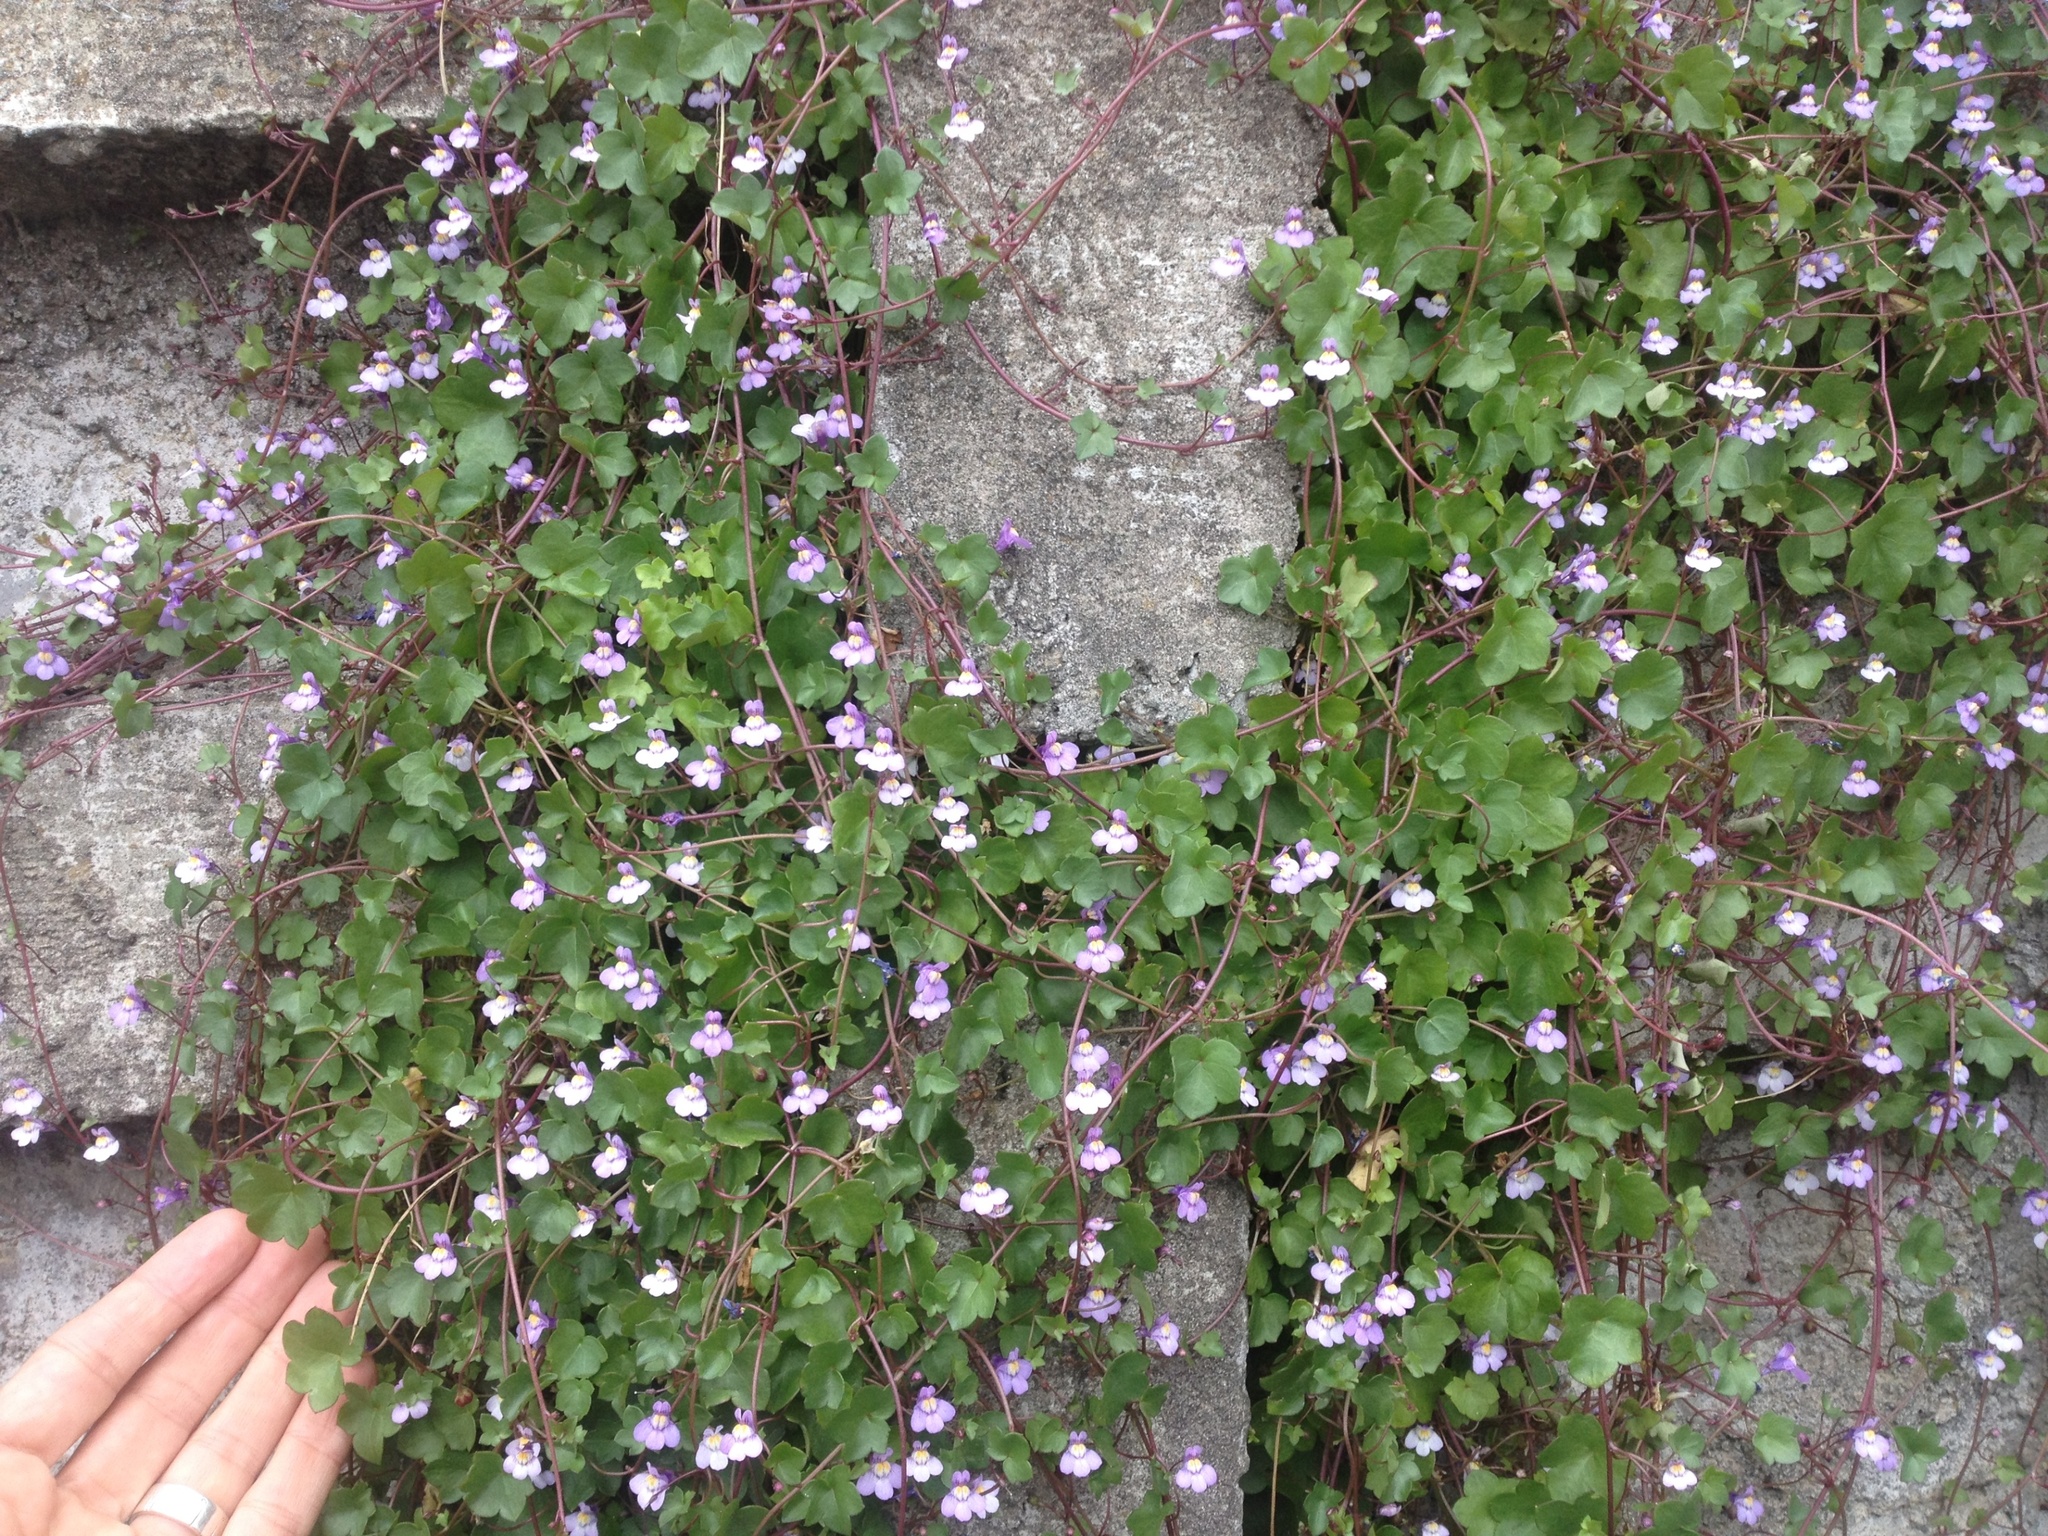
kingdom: Plantae
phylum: Tracheophyta
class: Magnoliopsida
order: Lamiales
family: Plantaginaceae
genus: Cymbalaria
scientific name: Cymbalaria muralis
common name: Ivy-leaved toadflax
